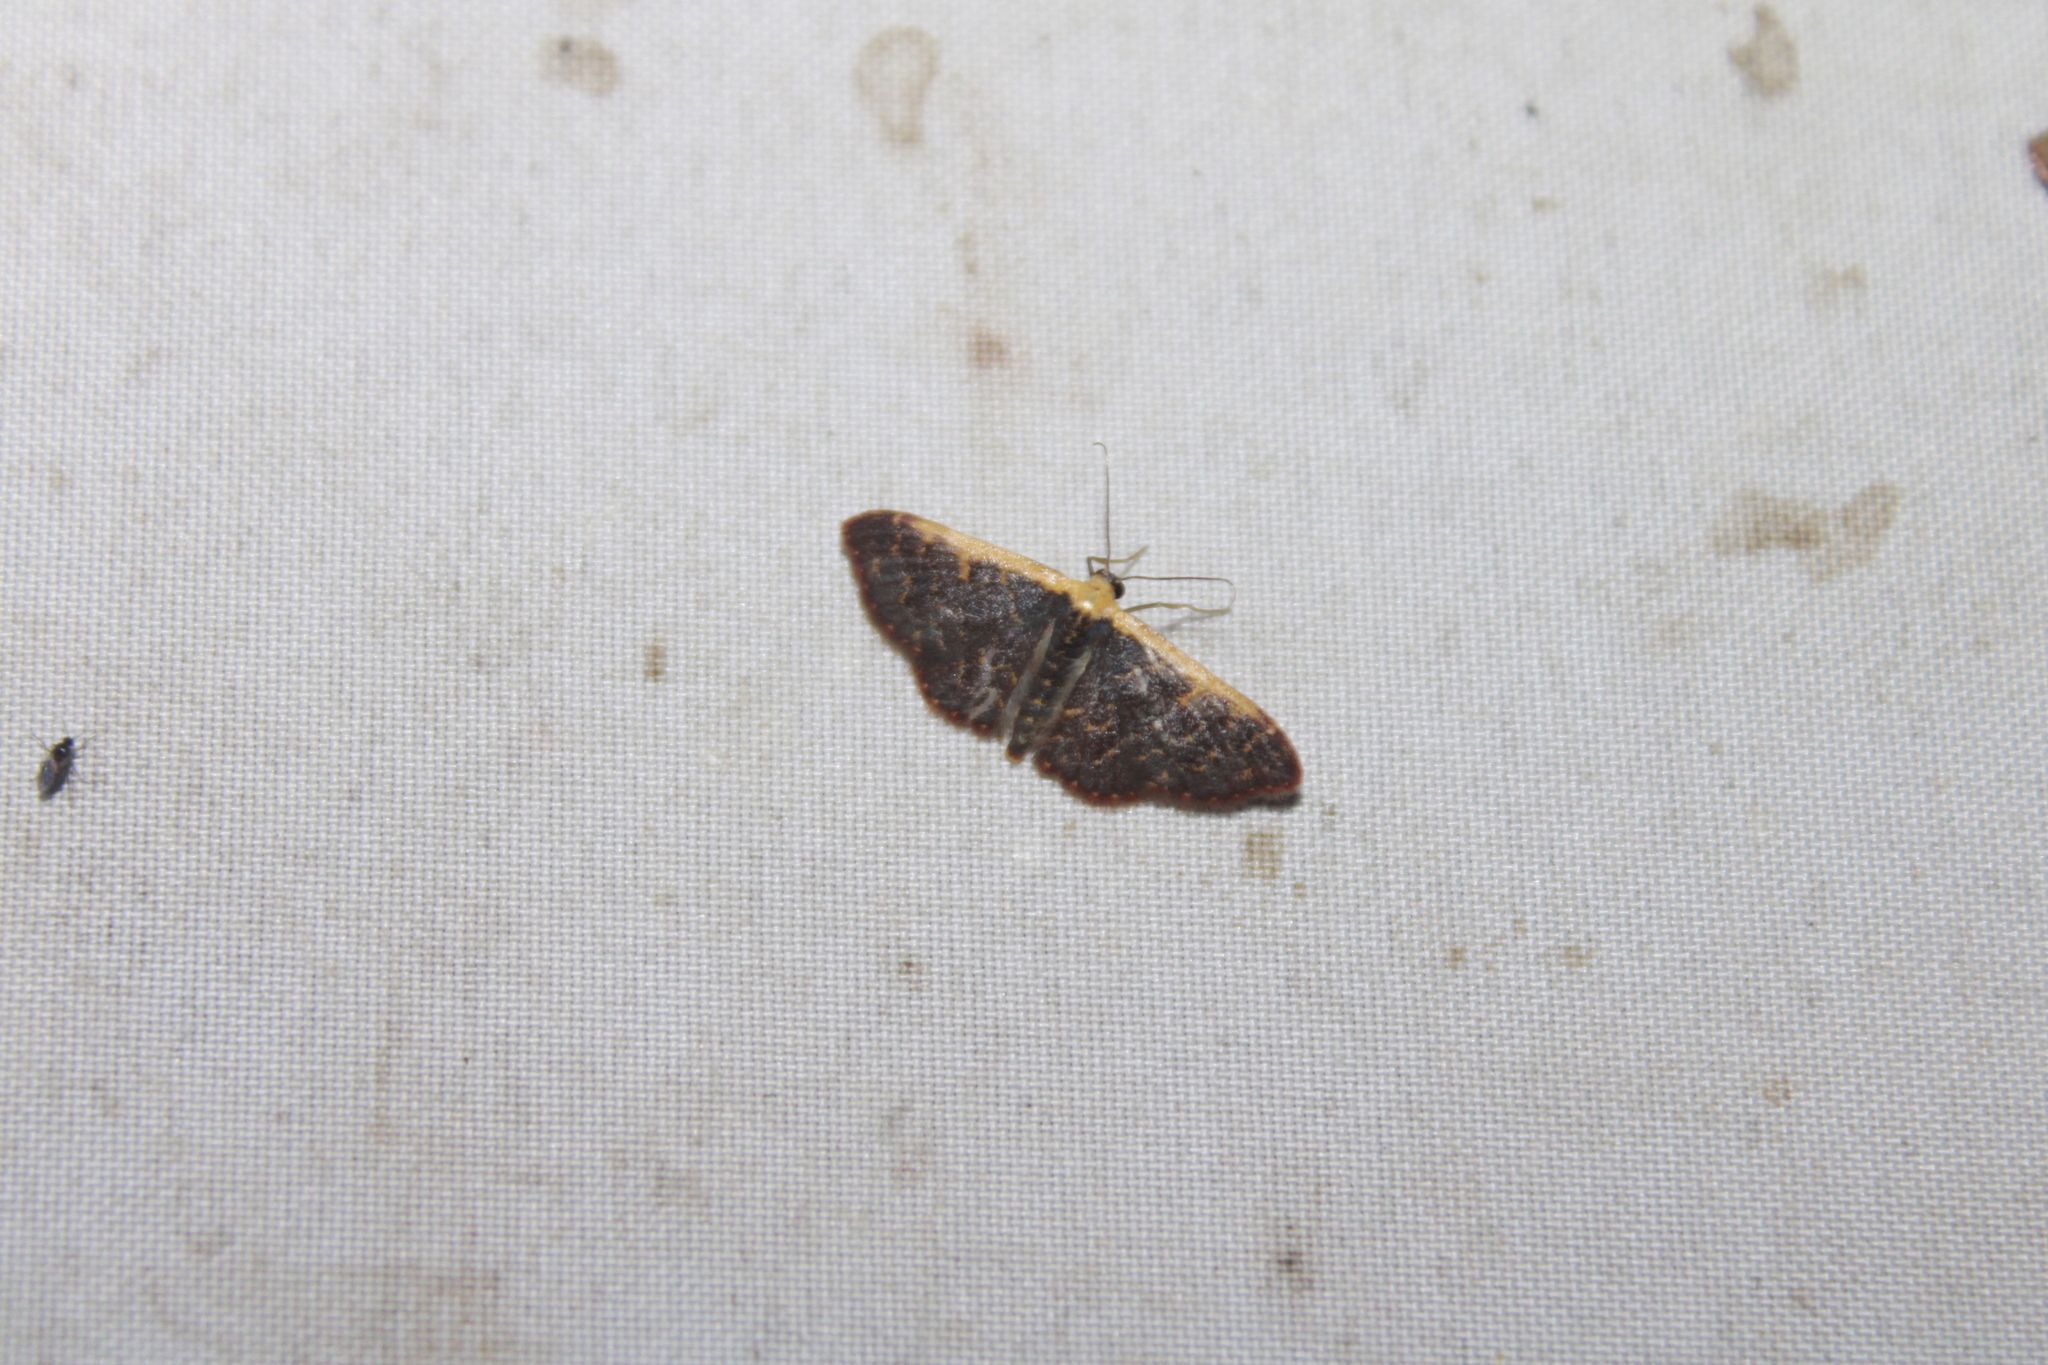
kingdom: Animalia
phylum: Arthropoda
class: Insecta
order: Lepidoptera
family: Geometridae
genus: Leptostales
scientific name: Leptostales crossii
